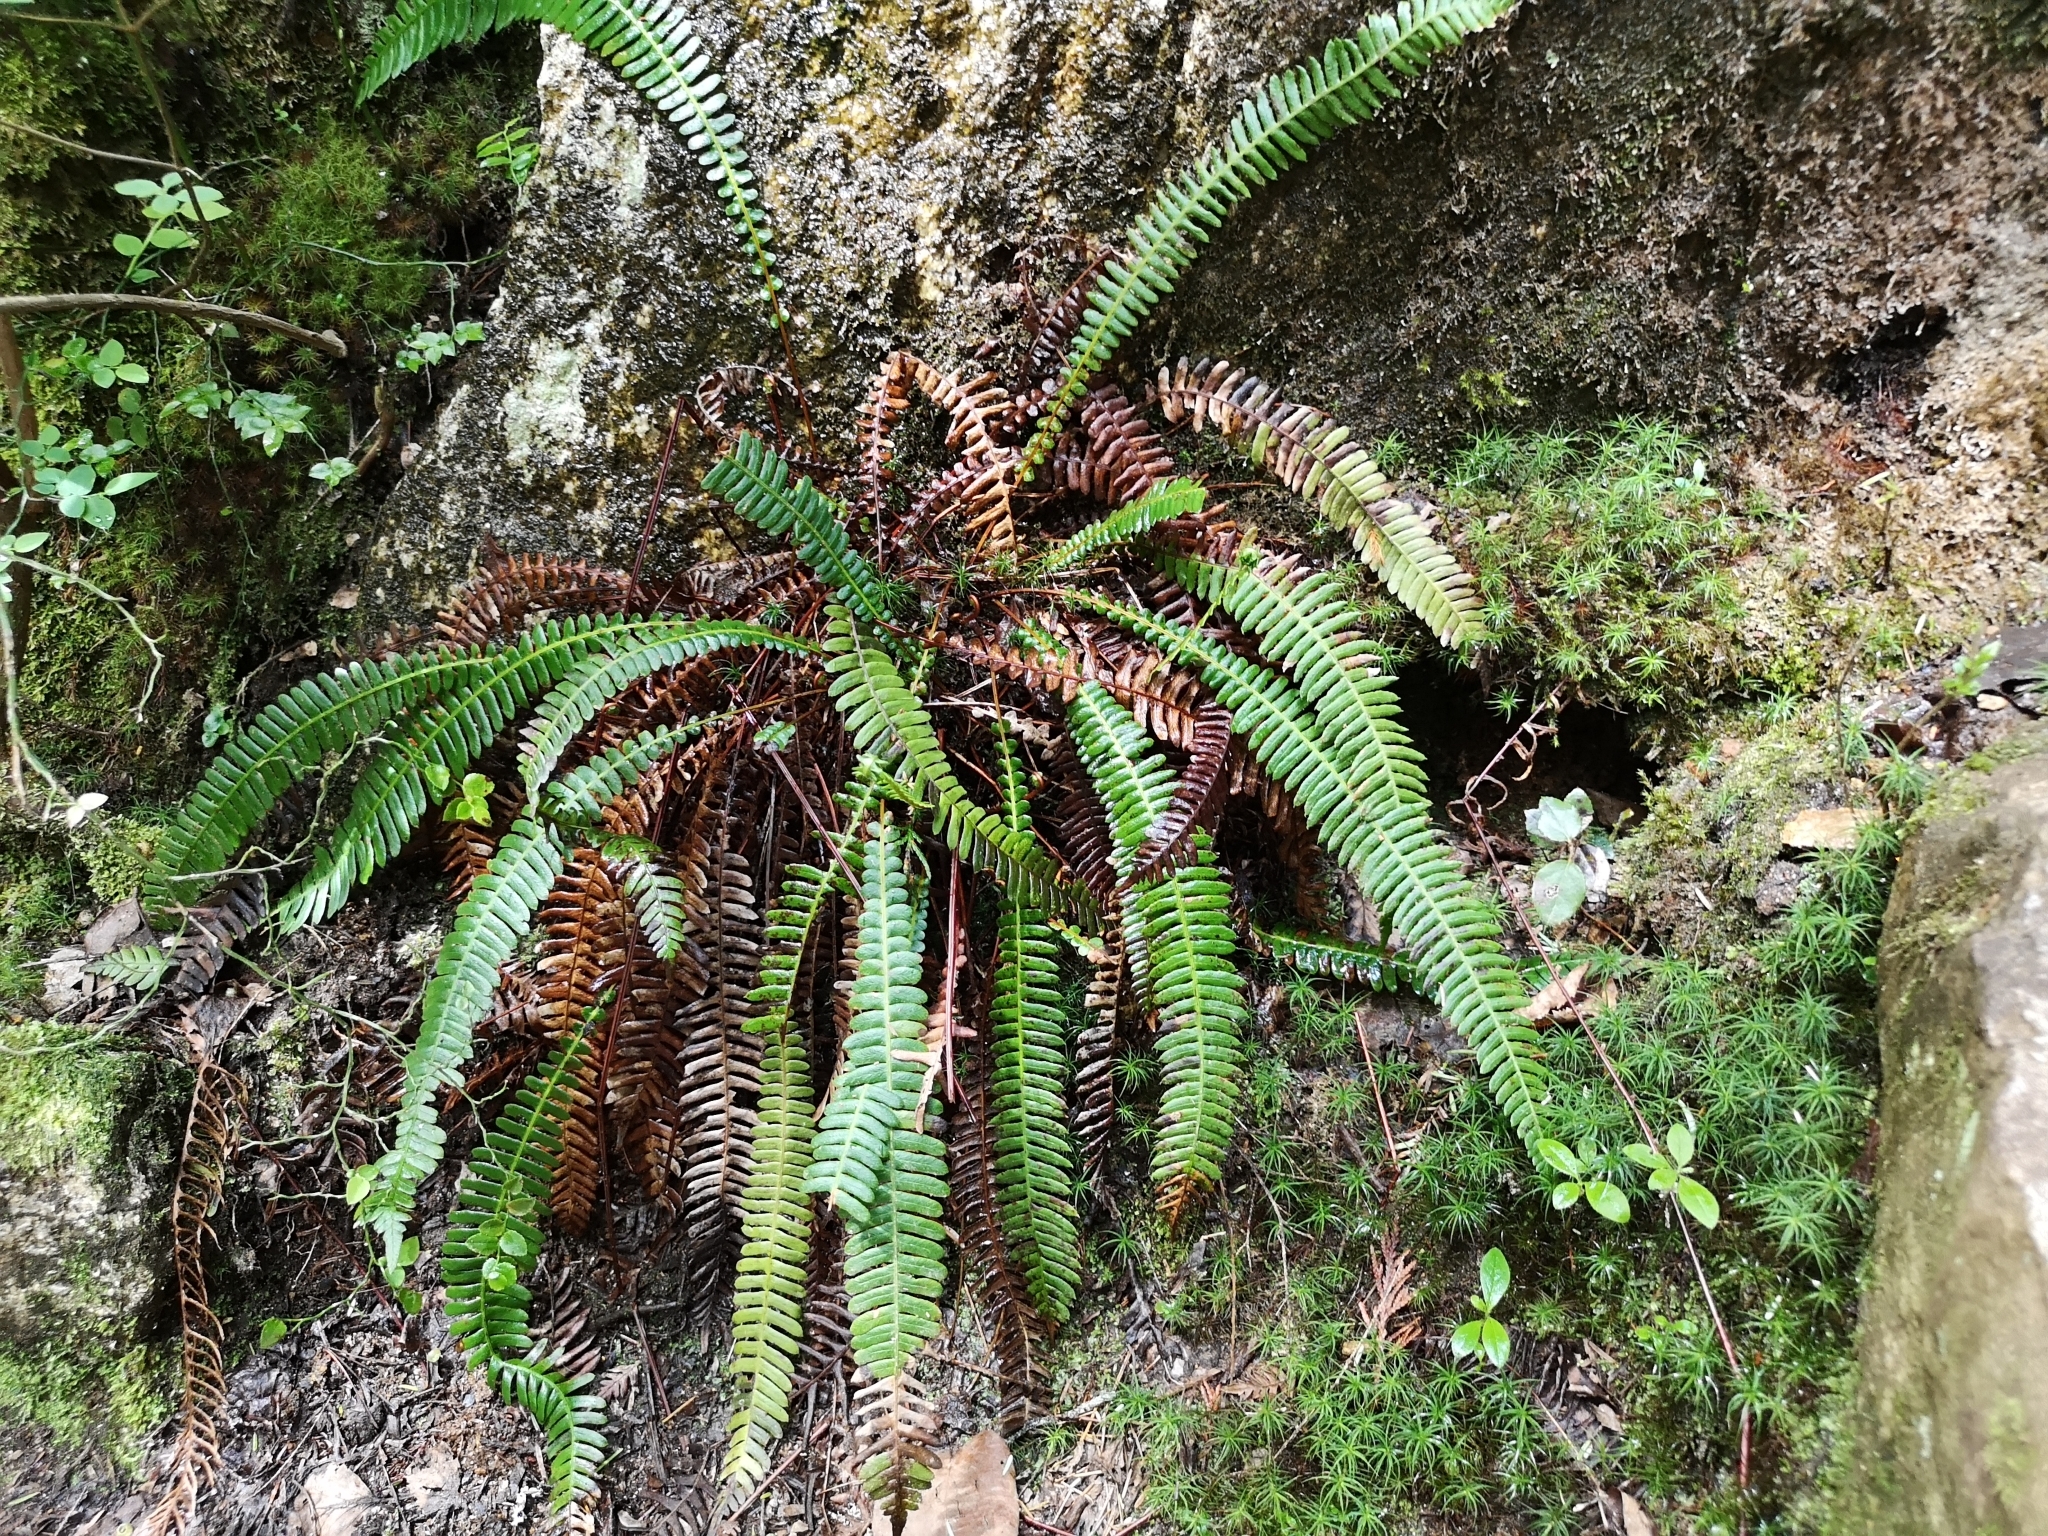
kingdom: Plantae
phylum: Tracheophyta
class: Polypodiopsida
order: Polypodiales
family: Blechnaceae
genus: Struthiopteris
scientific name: Struthiopteris spicant
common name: Deer fern
